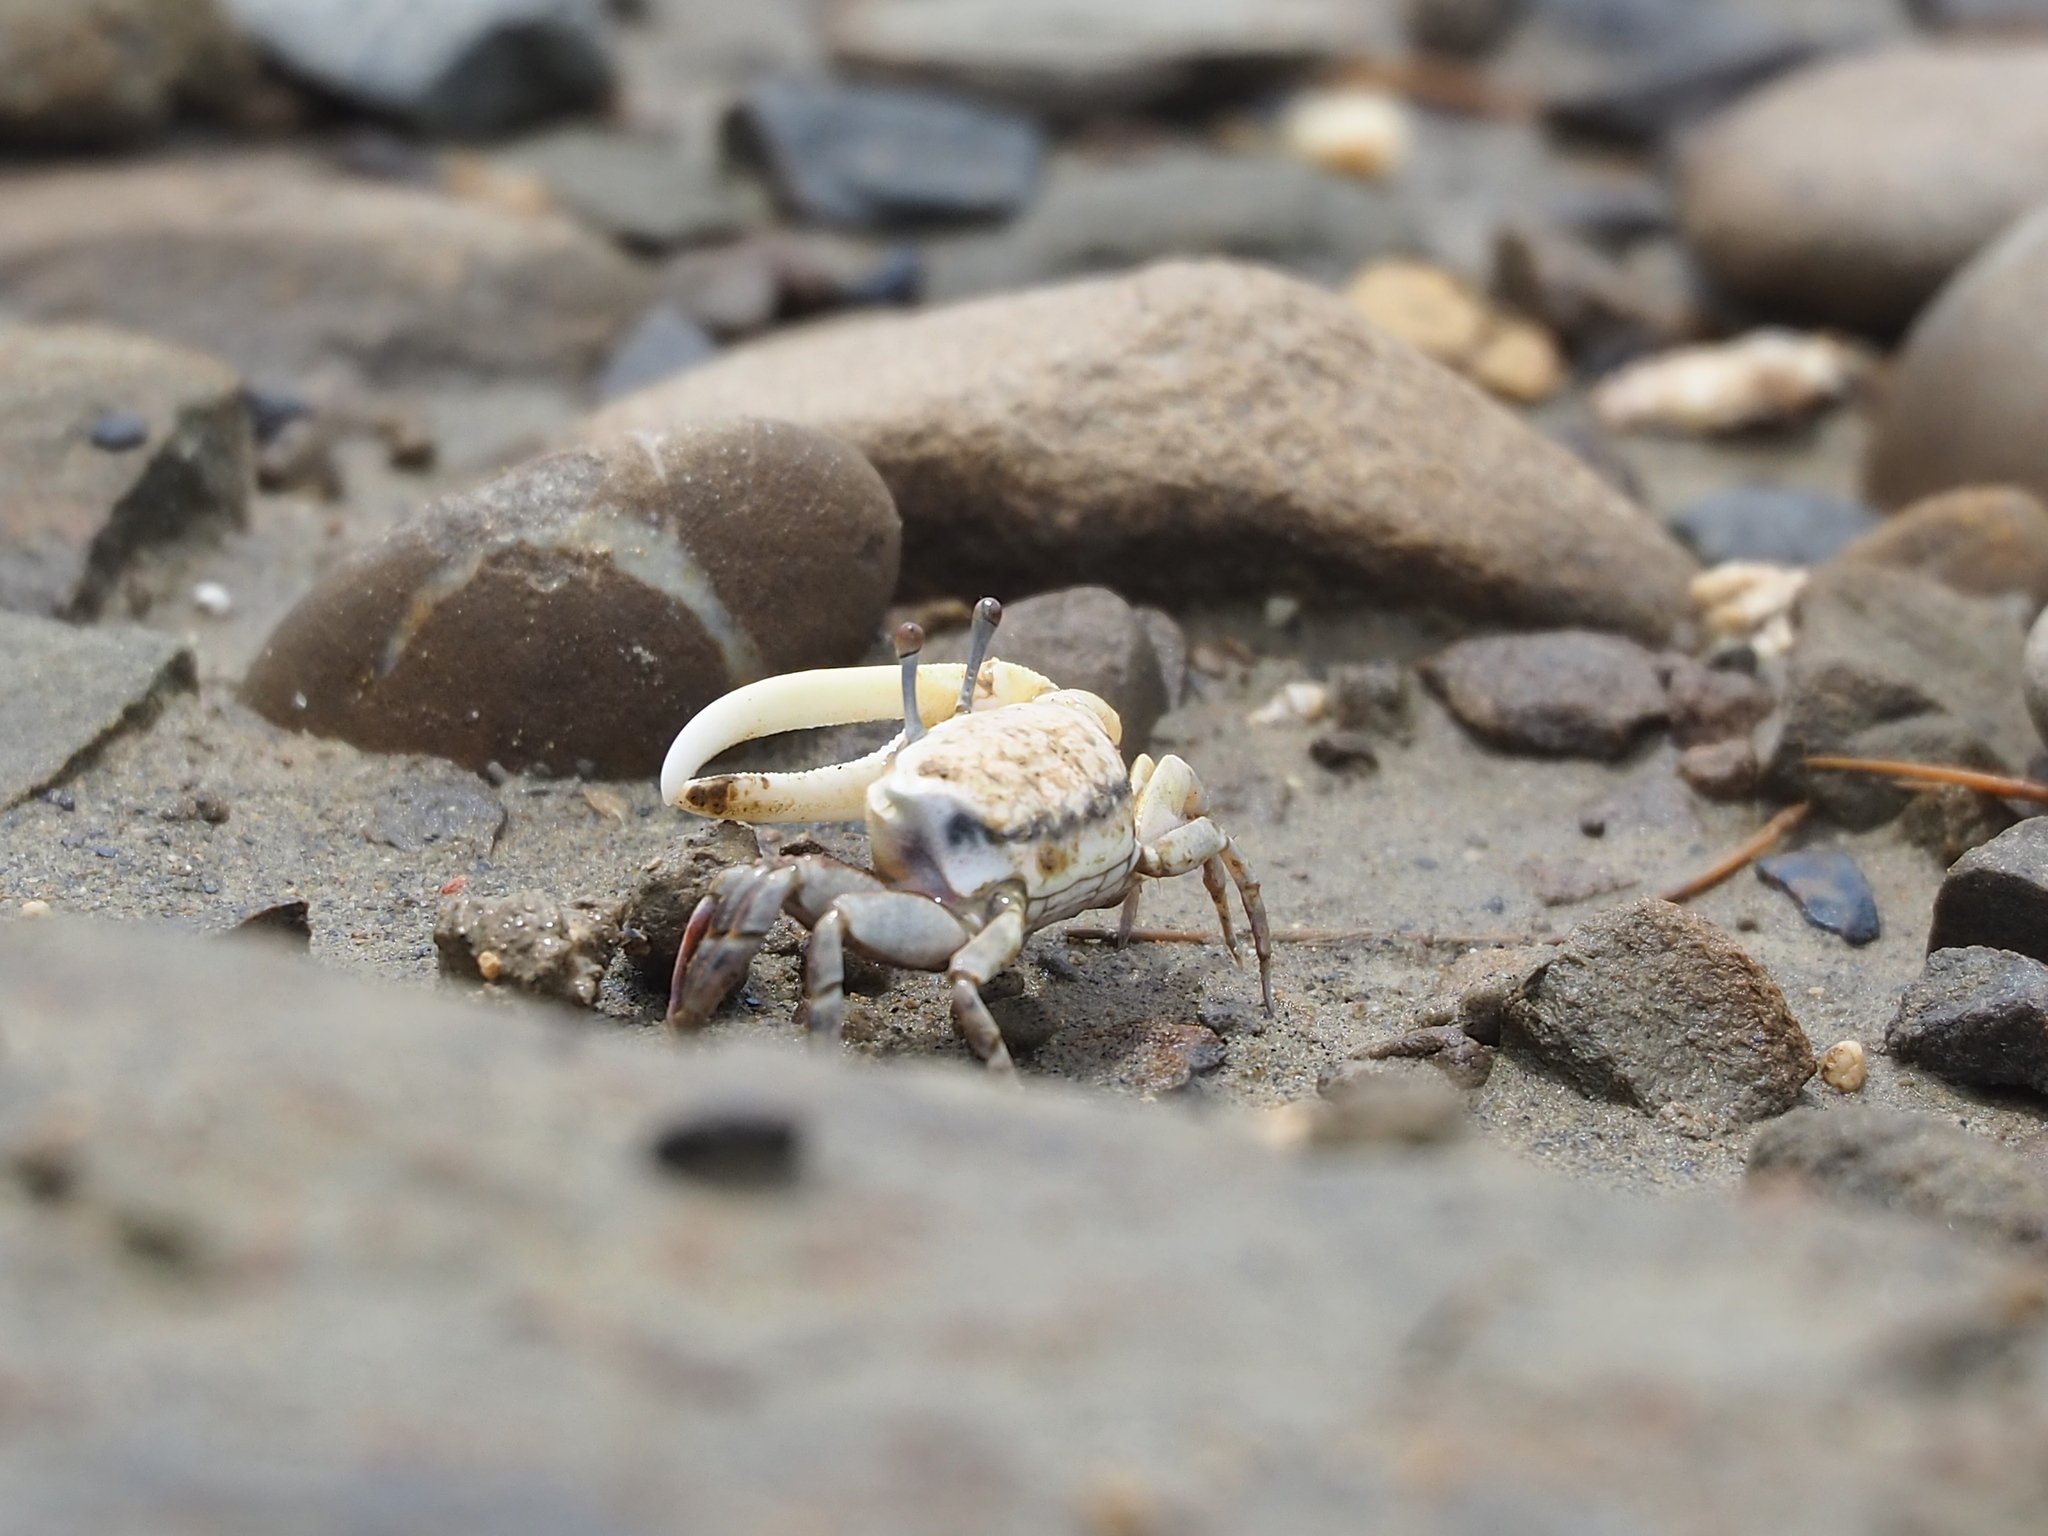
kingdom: Animalia
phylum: Arthropoda
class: Malacostraca
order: Decapoda
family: Ocypodidae
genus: Austruca
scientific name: Austruca lactea
